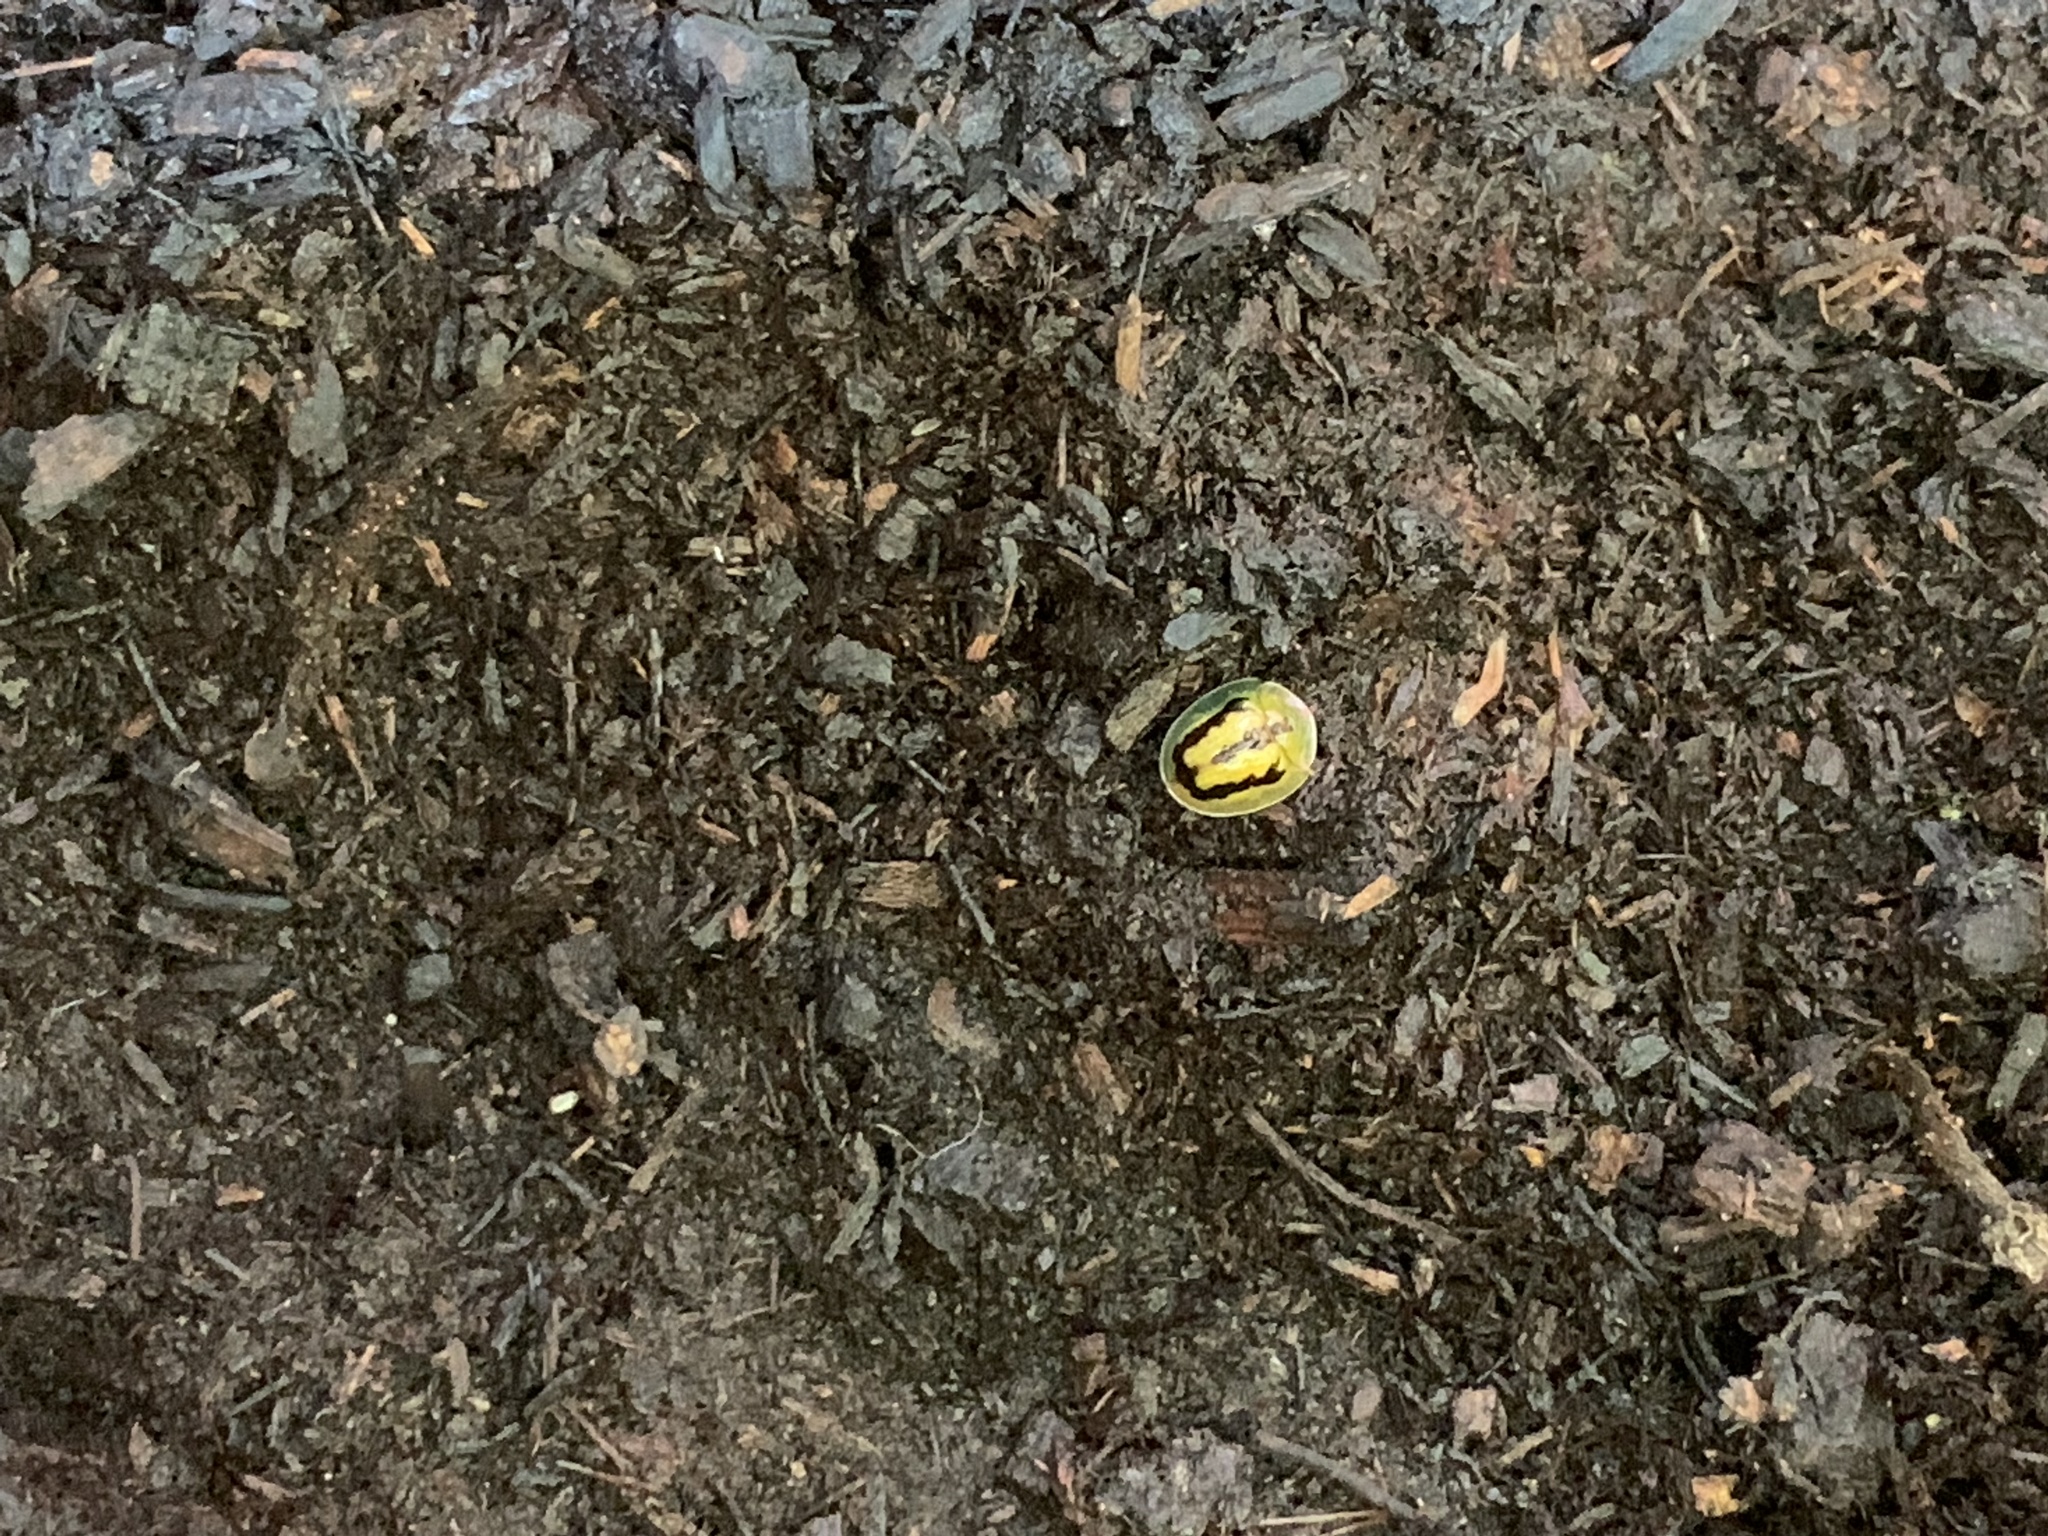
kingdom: Animalia
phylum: Arthropoda
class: Insecta
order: Coleoptera
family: Chrysomelidae
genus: Cassida
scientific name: Cassida circumdata
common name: Tortoise beetle
